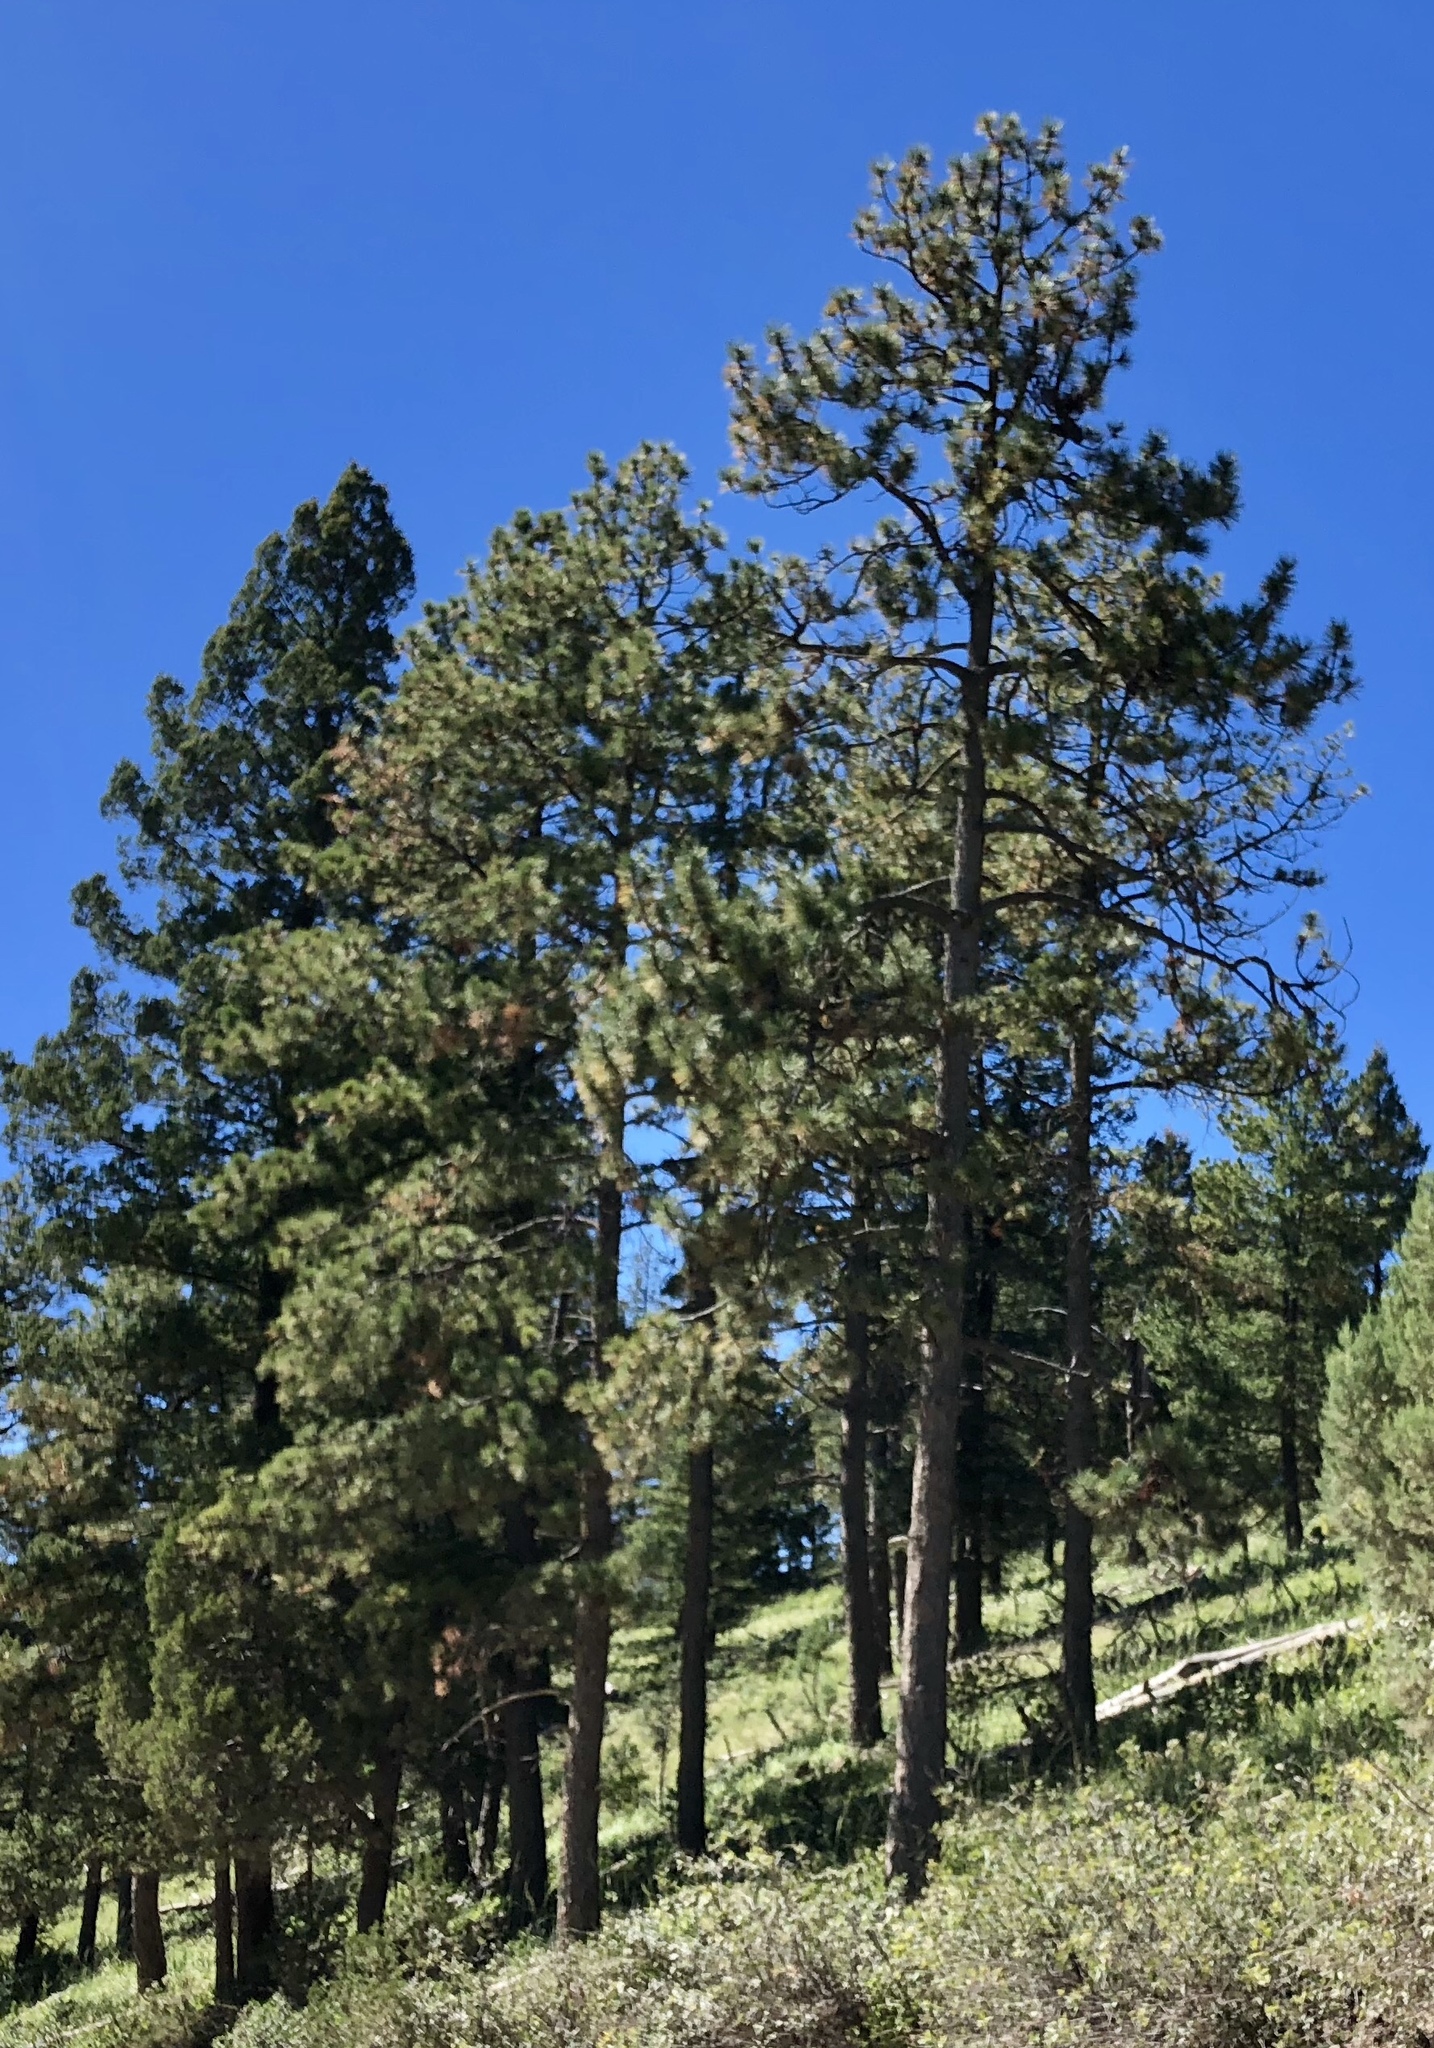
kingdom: Plantae
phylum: Tracheophyta
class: Pinopsida
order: Pinales
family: Pinaceae
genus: Pinus
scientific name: Pinus ponderosa
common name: Western yellow-pine
